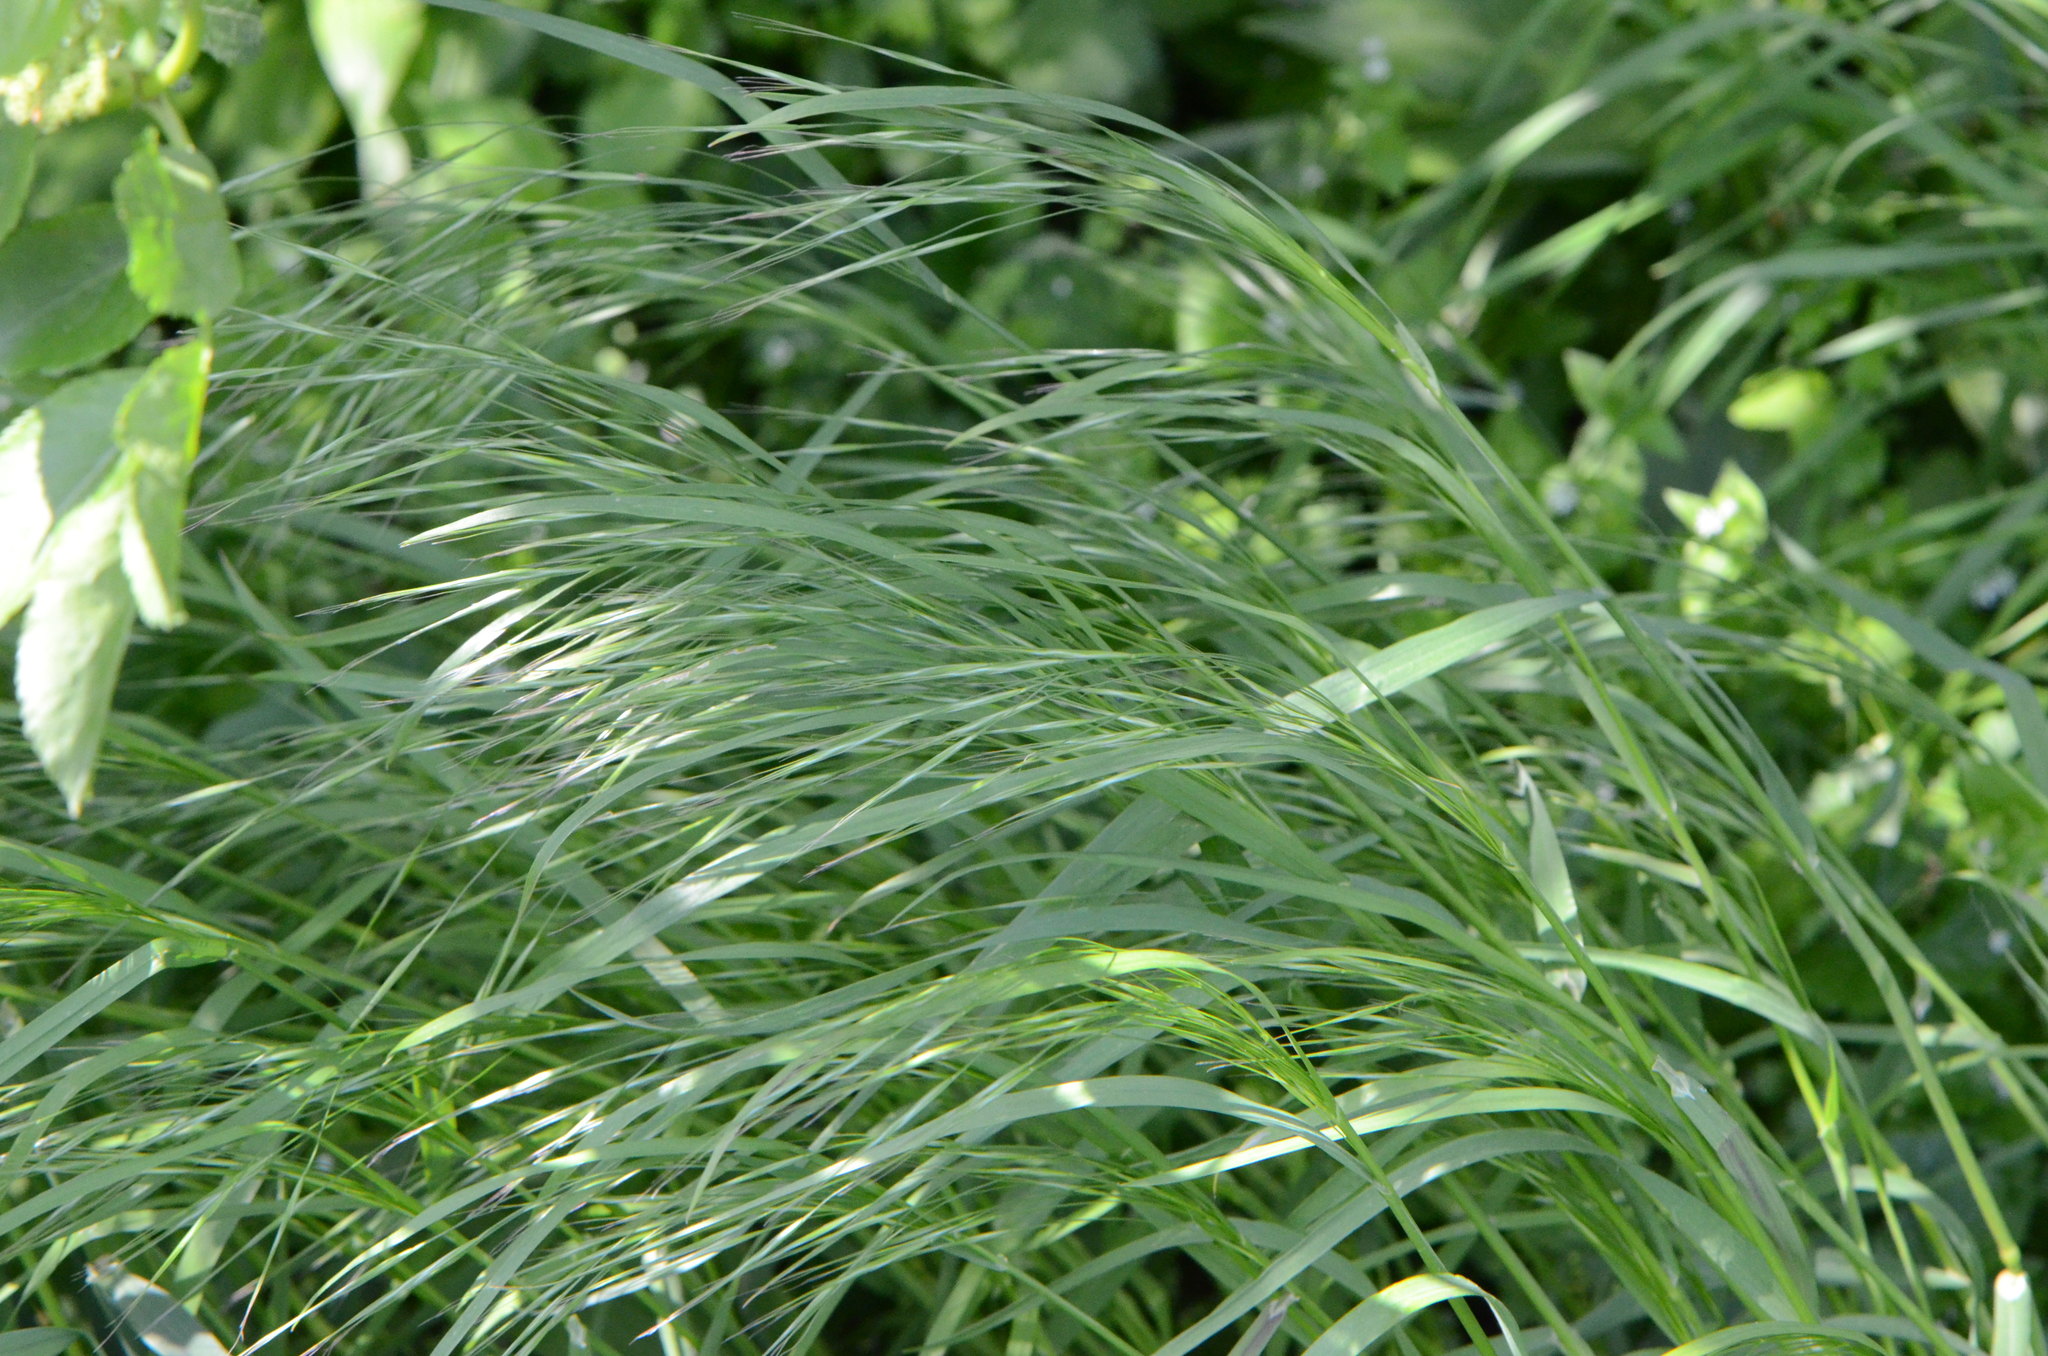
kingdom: Plantae
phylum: Tracheophyta
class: Liliopsida
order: Poales
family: Poaceae
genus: Bromus
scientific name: Bromus sterilis
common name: Poverty brome
